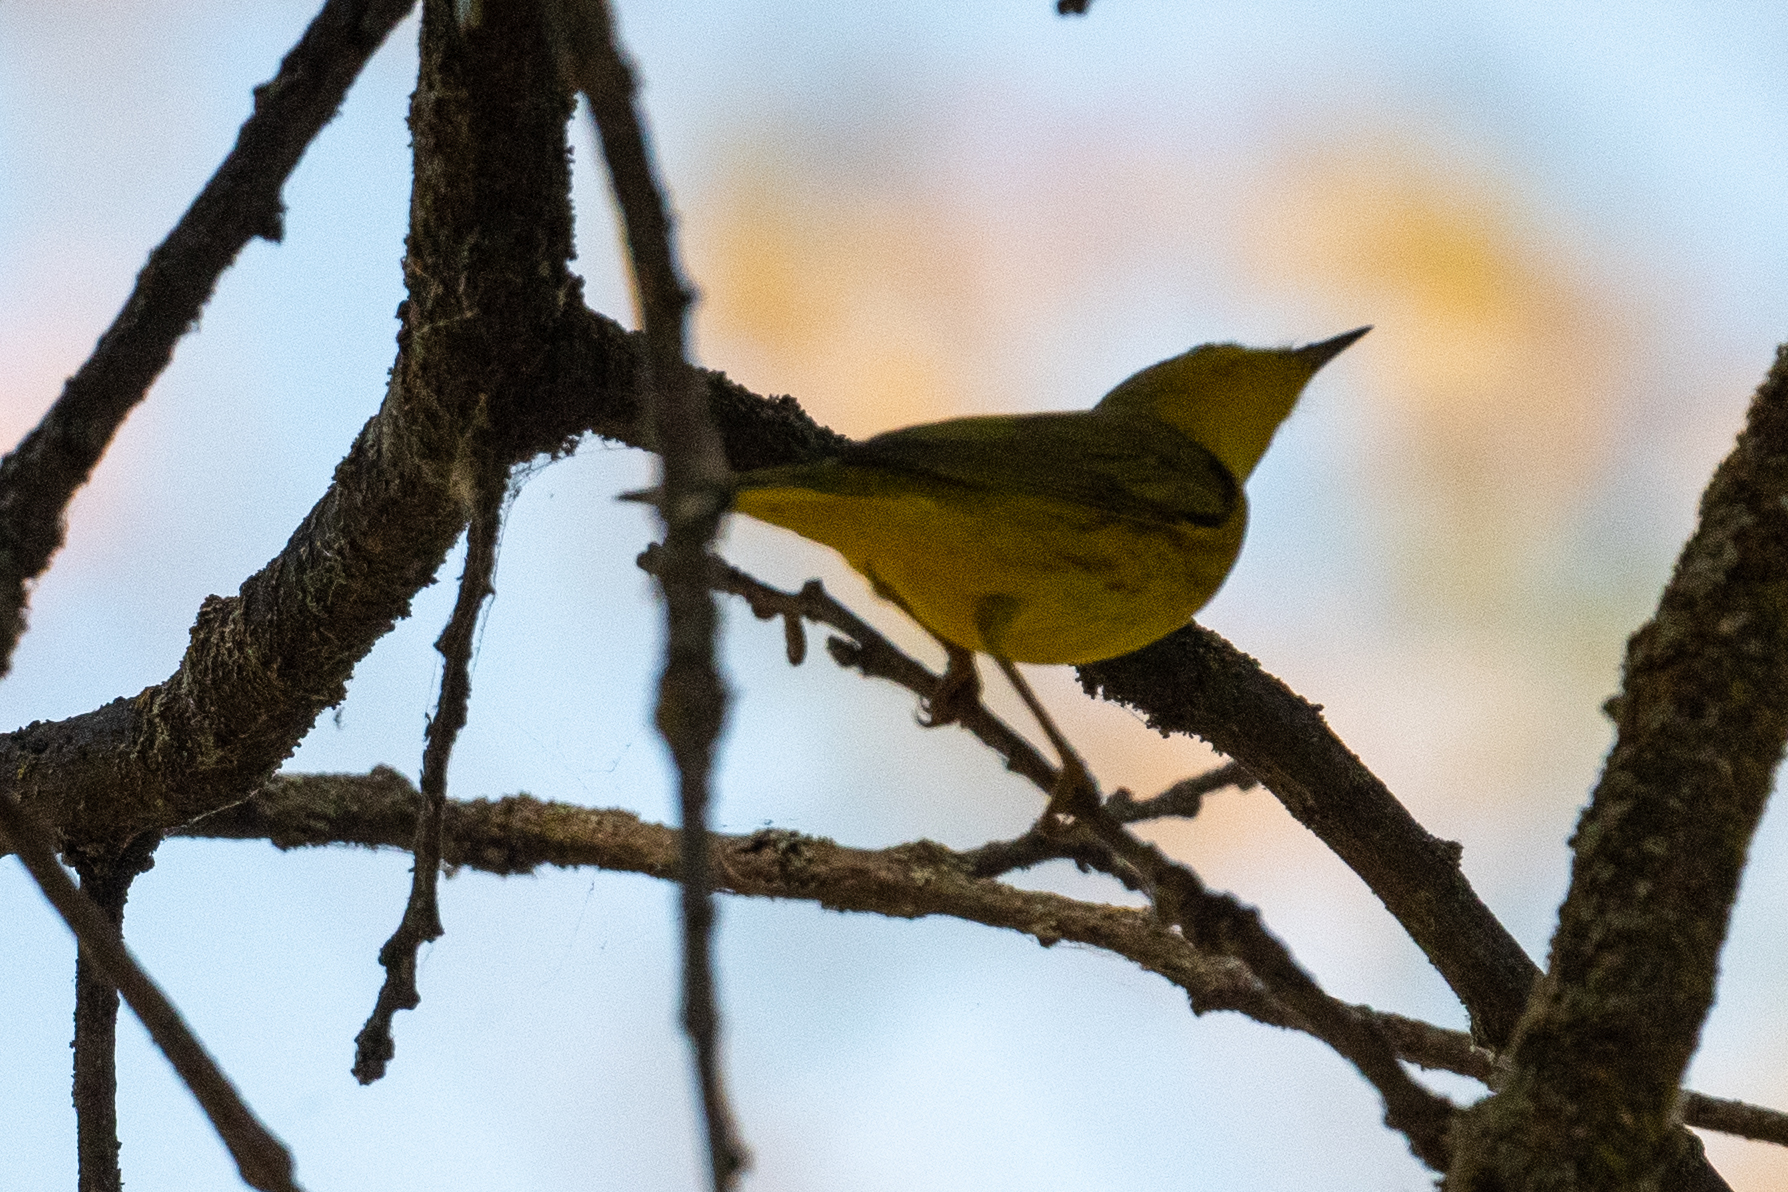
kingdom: Animalia
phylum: Chordata
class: Aves
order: Passeriformes
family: Parulidae
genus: Setophaga
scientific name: Setophaga petechia
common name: Yellow warbler
